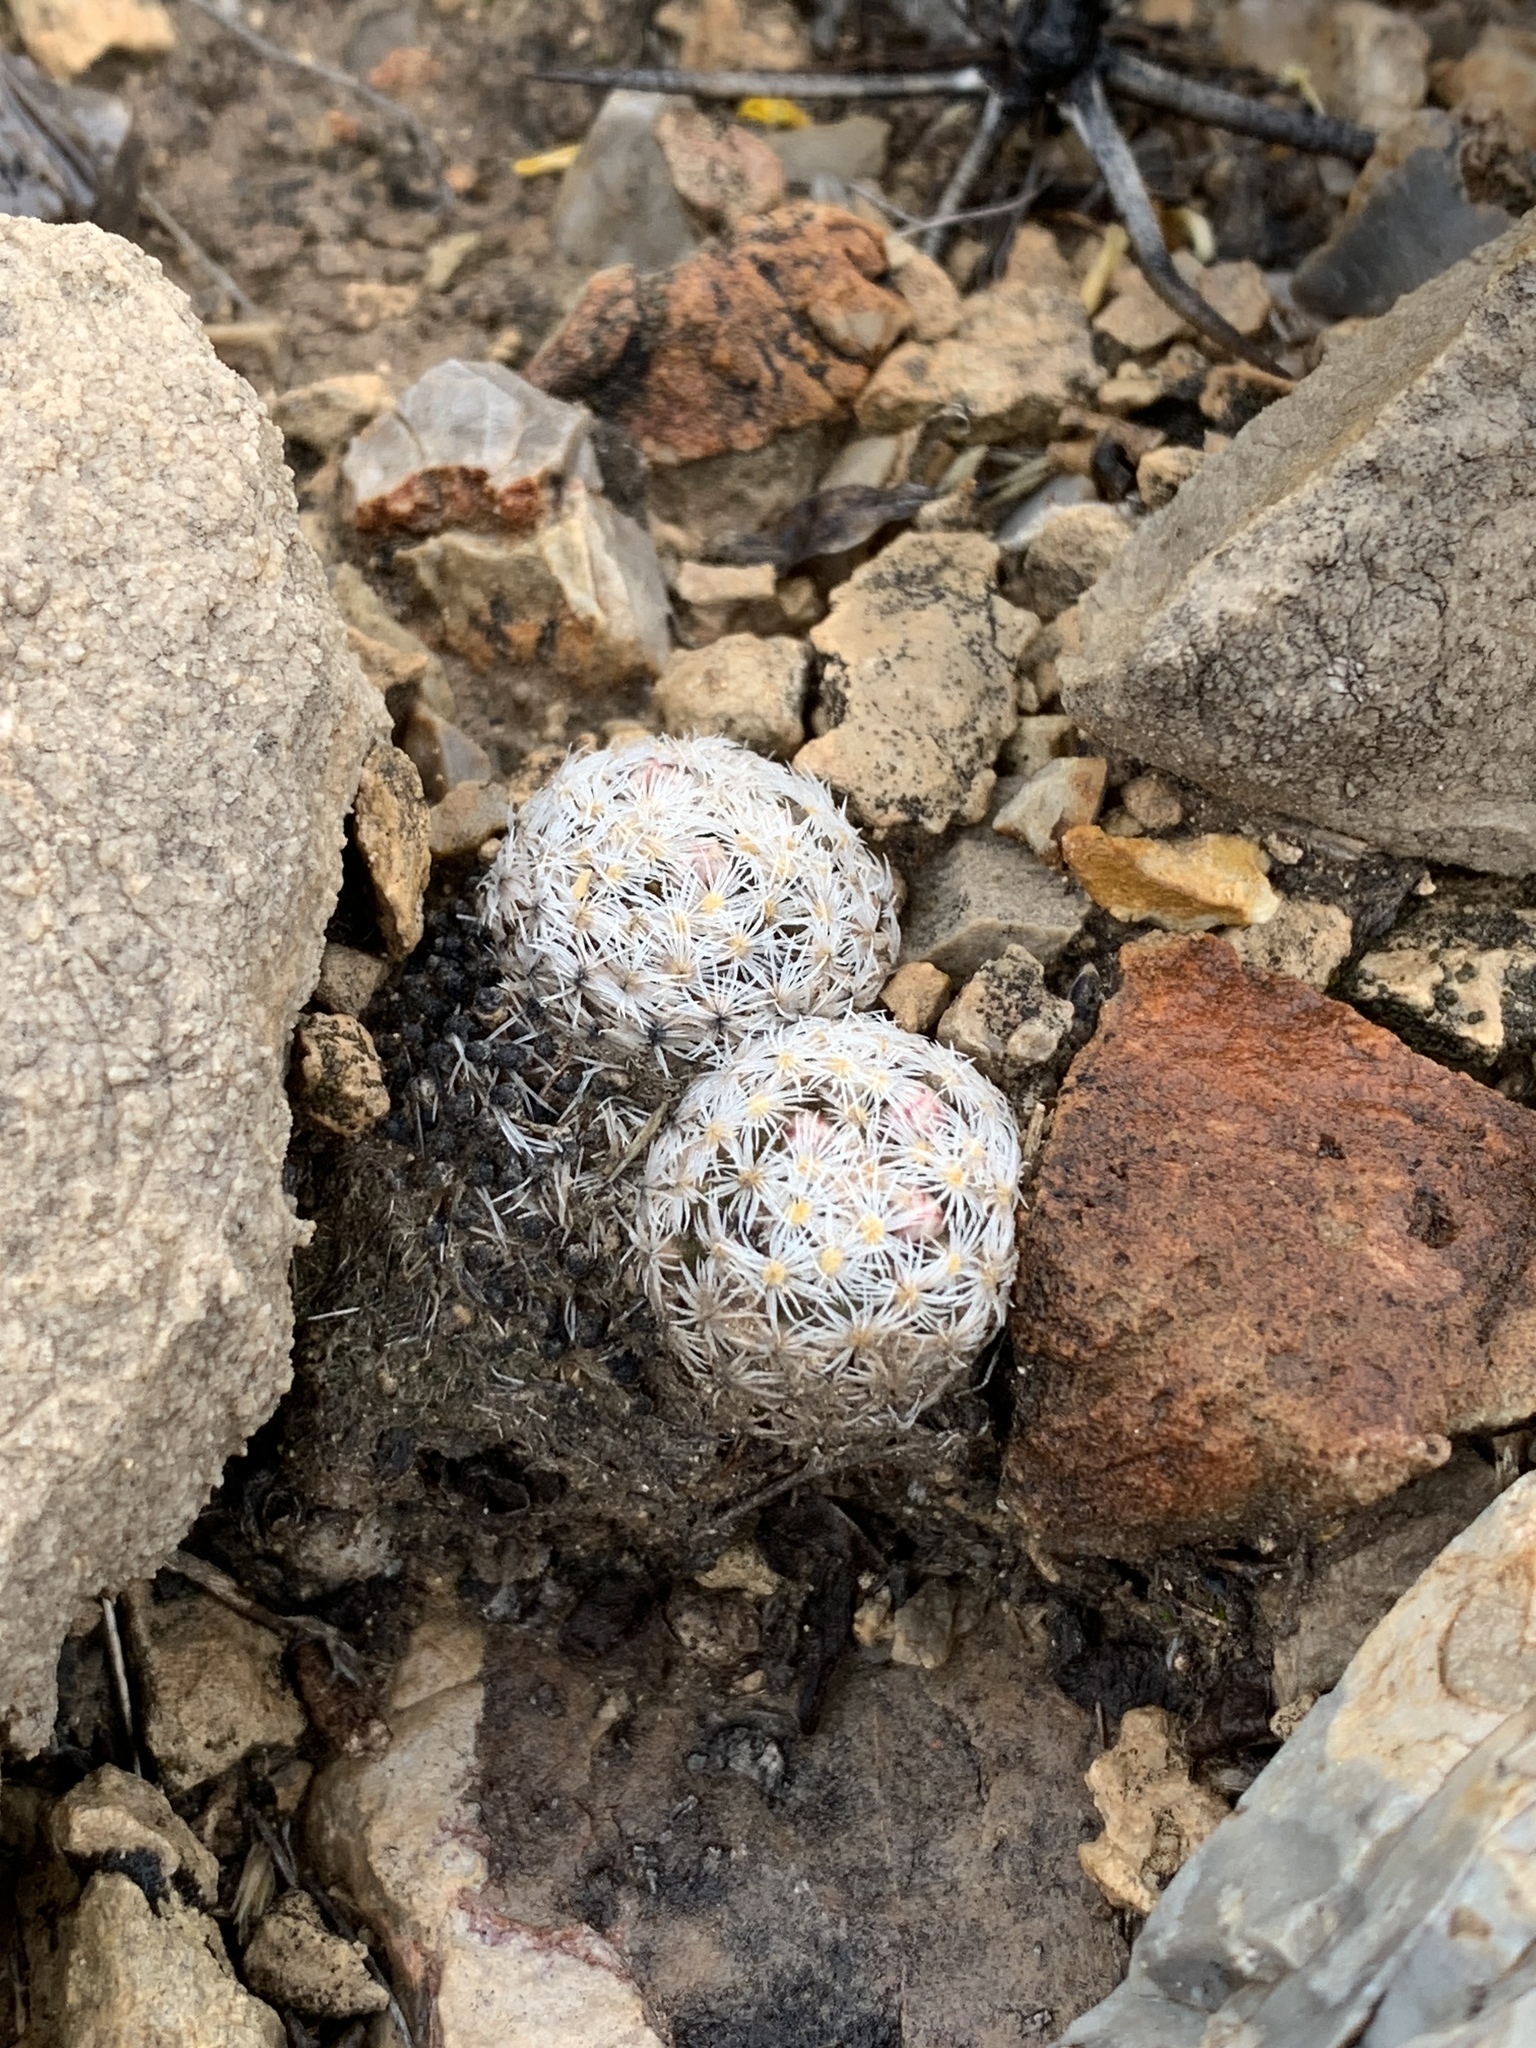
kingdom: Plantae
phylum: Tracheophyta
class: Magnoliopsida
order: Caryophyllales
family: Cactaceae
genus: Mammillaria
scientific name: Mammillaria lasiacantha
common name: Lace-spine nipple cactus
